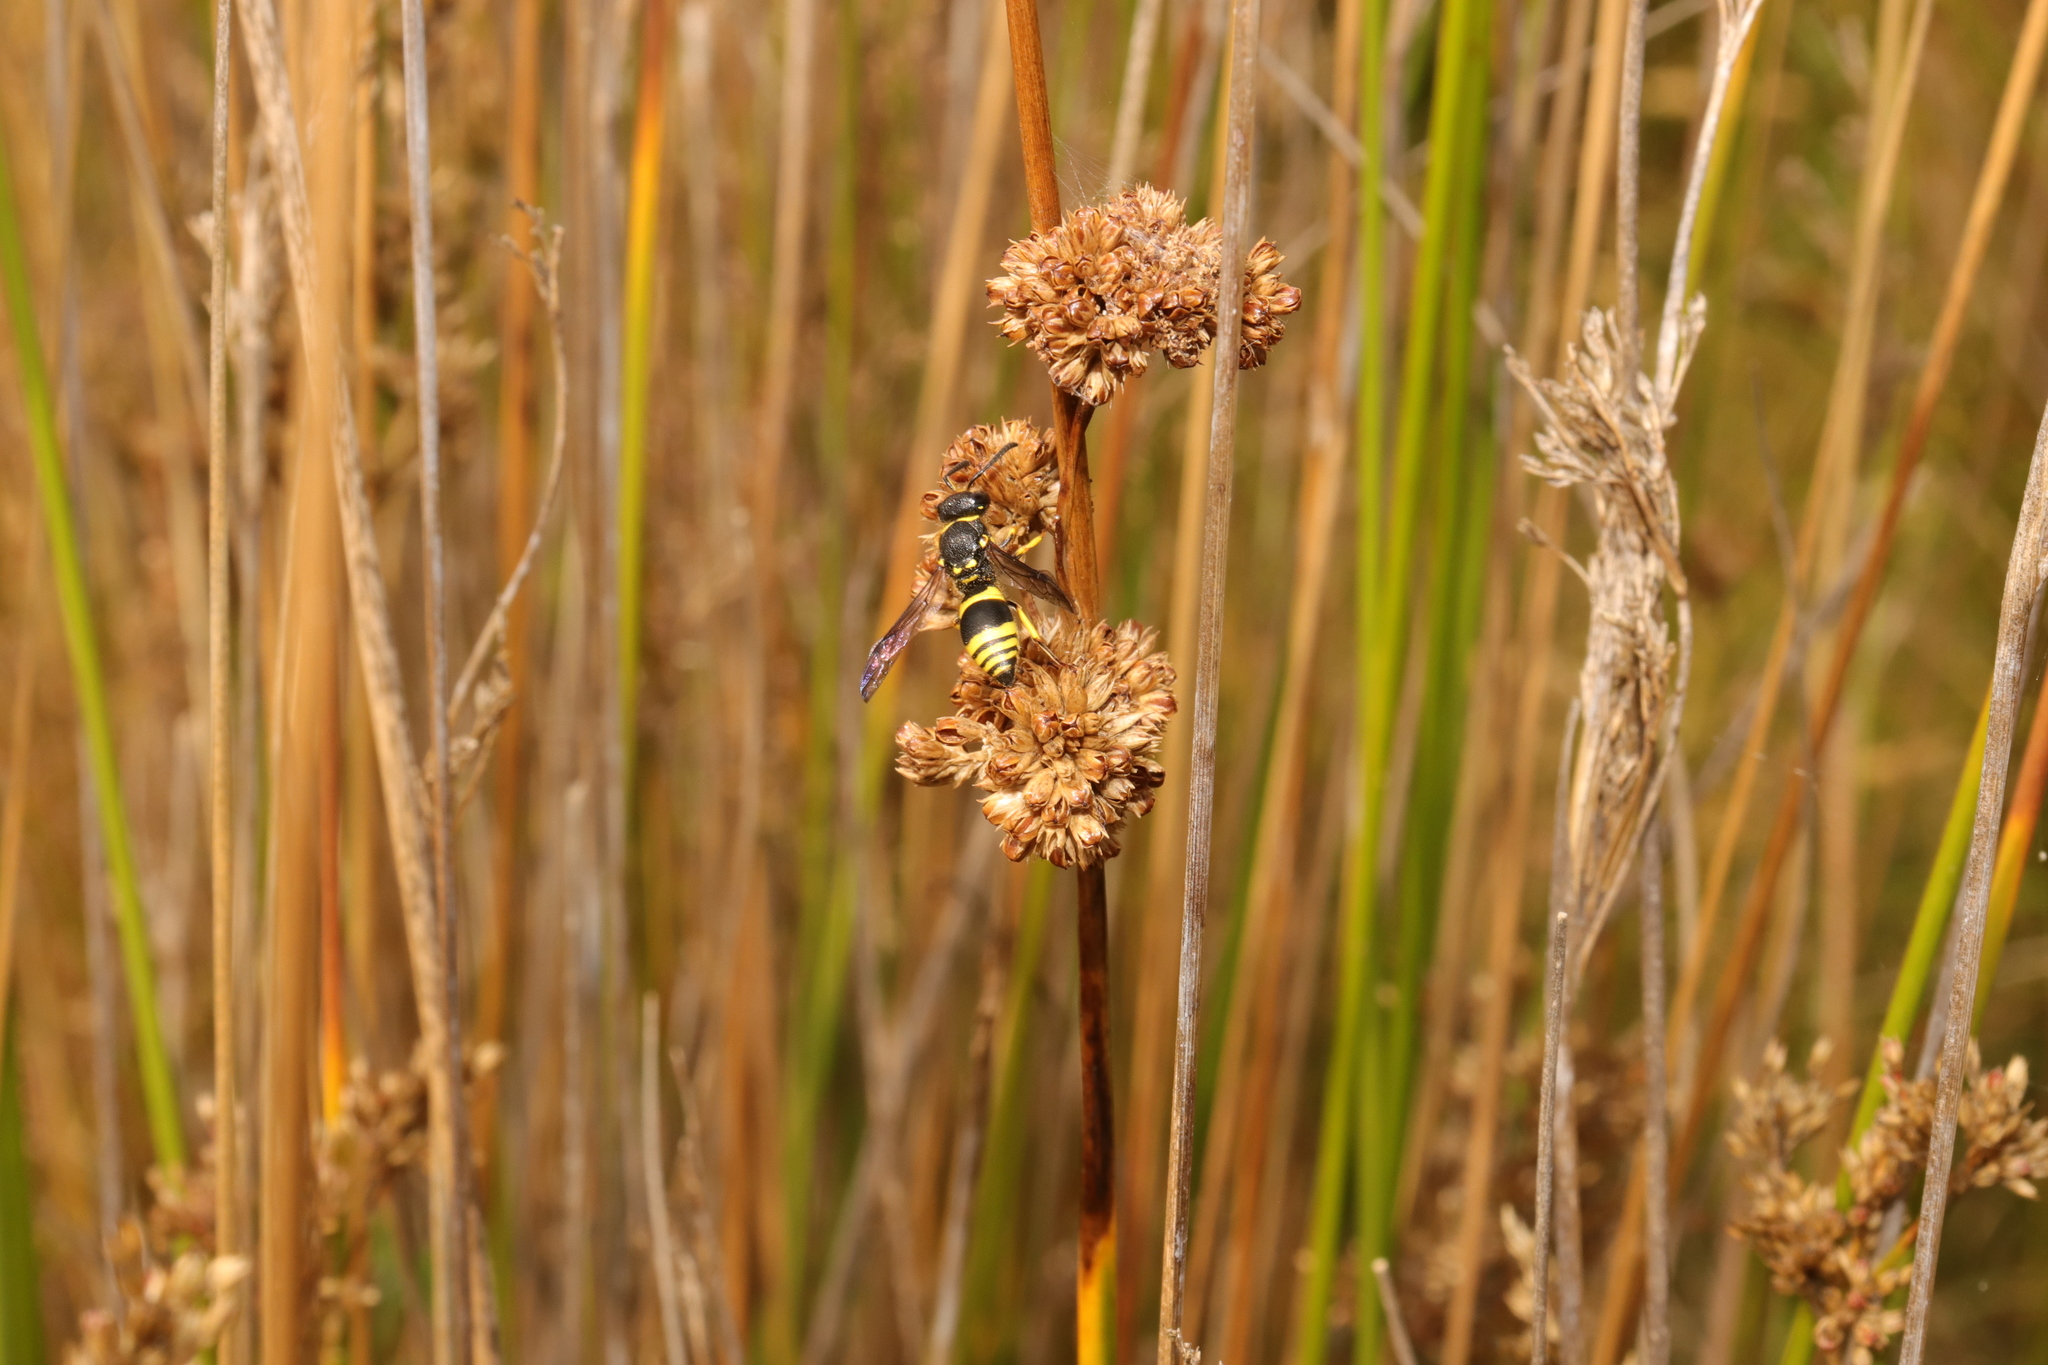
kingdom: Animalia
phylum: Arthropoda
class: Insecta
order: Hymenoptera
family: Vespidae
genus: Ancistrocerus
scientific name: Ancistrocerus gazella
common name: European tube wasp
